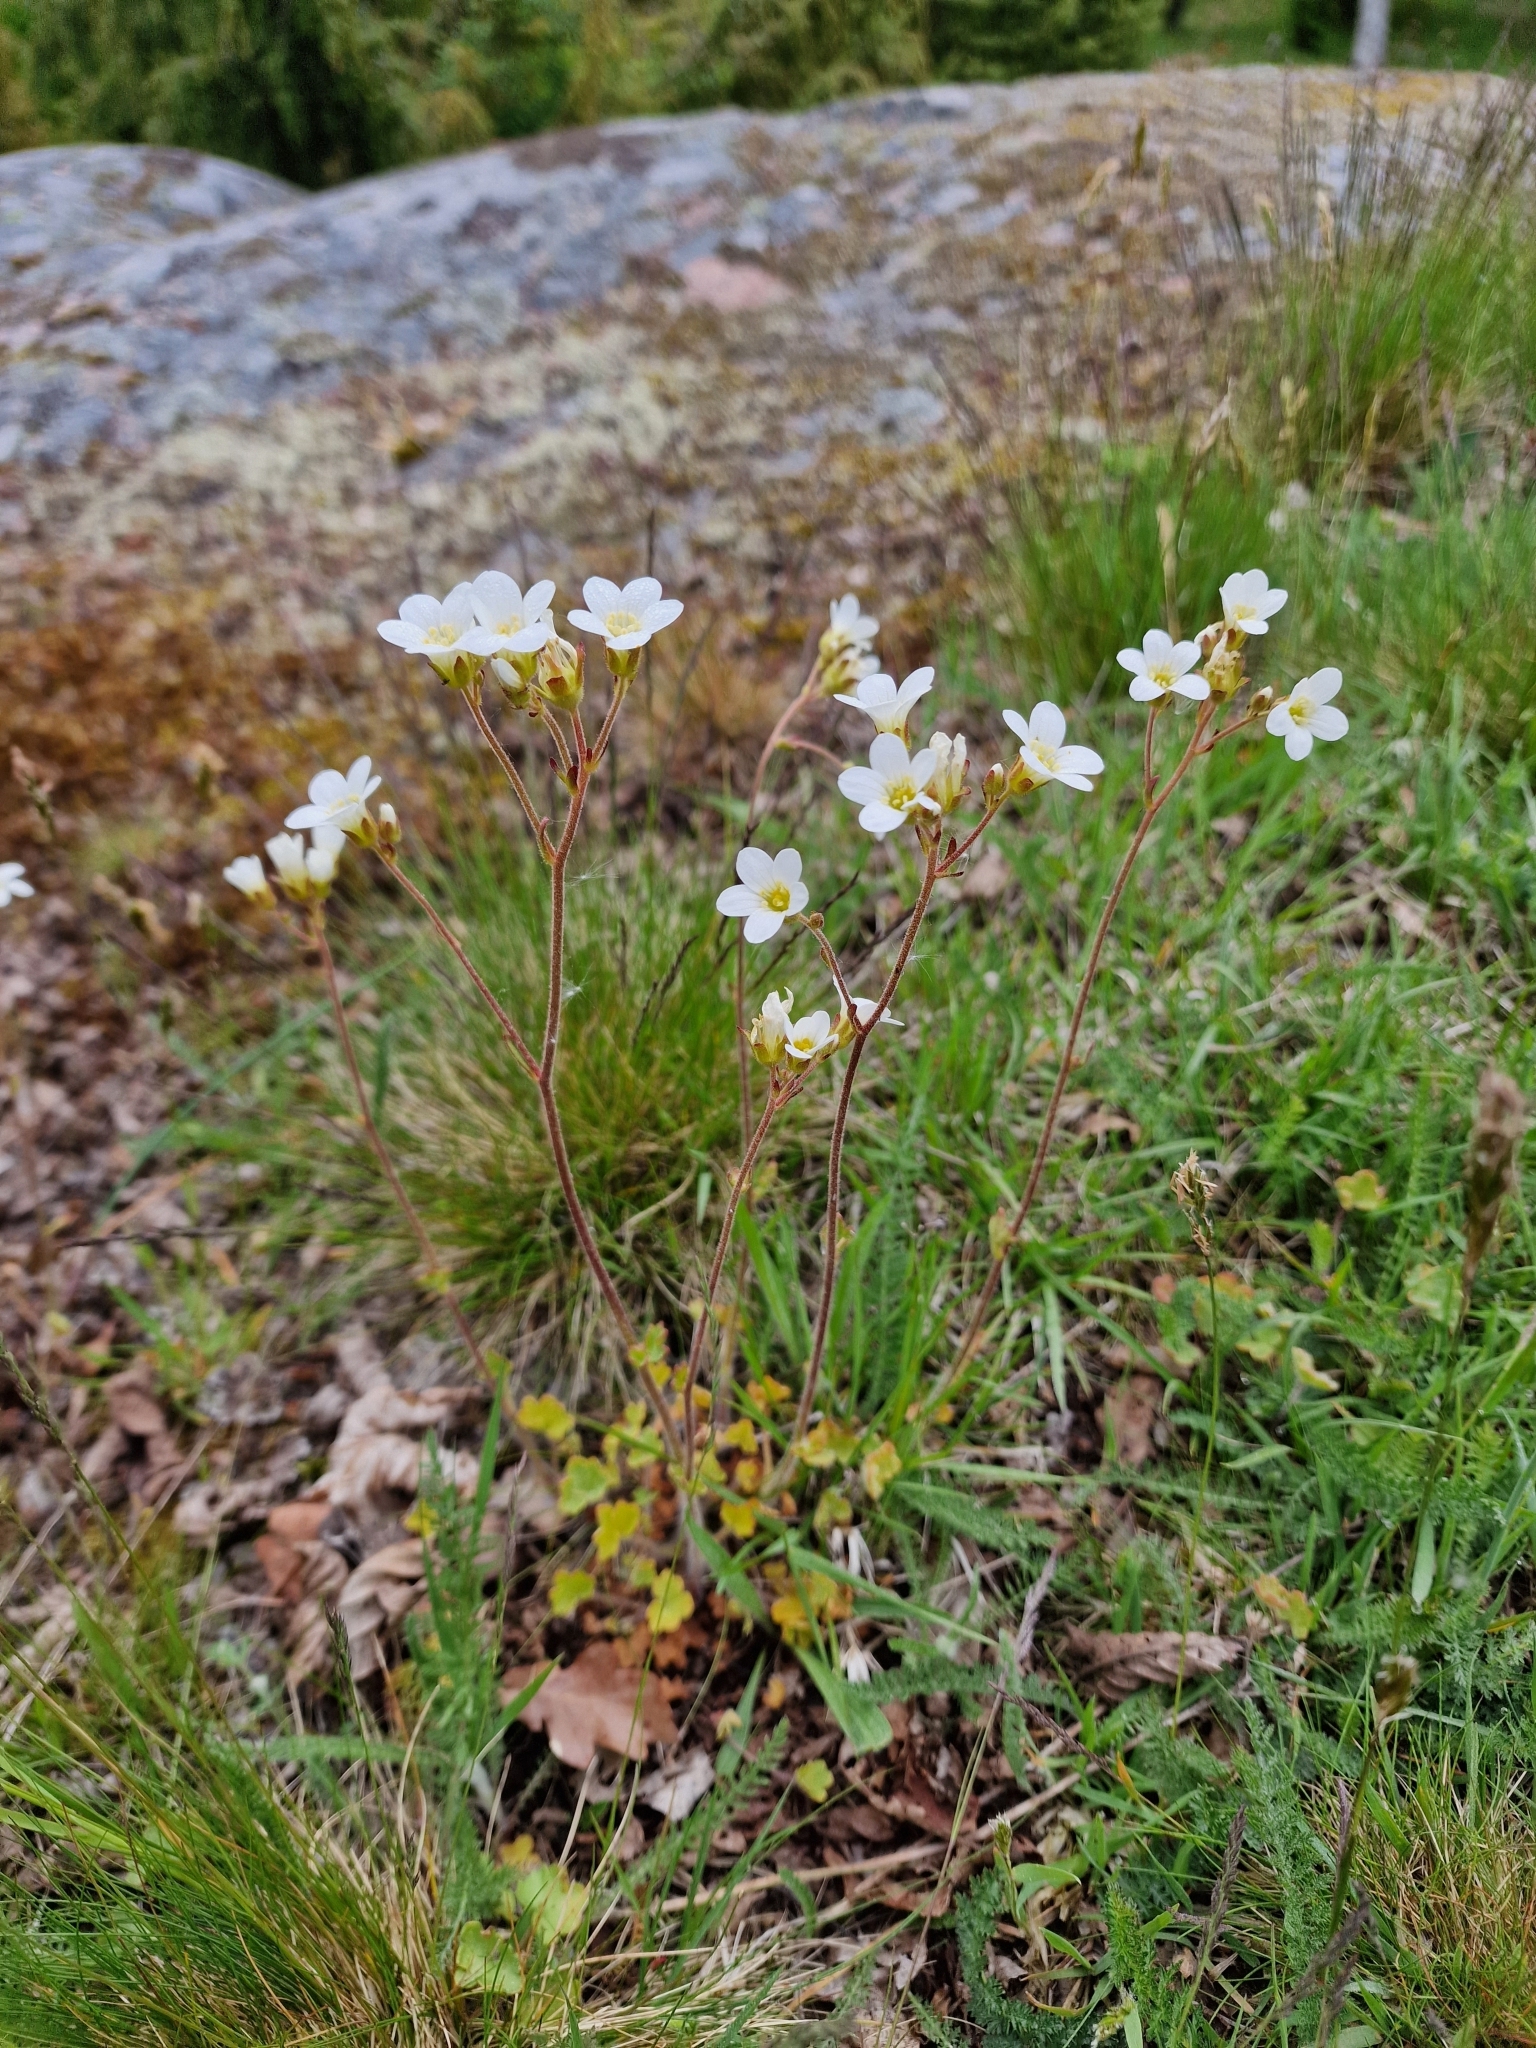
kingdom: Plantae
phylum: Tracheophyta
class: Magnoliopsida
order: Saxifragales
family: Saxifragaceae
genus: Saxifraga
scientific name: Saxifraga granulata
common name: Meadow saxifrage
